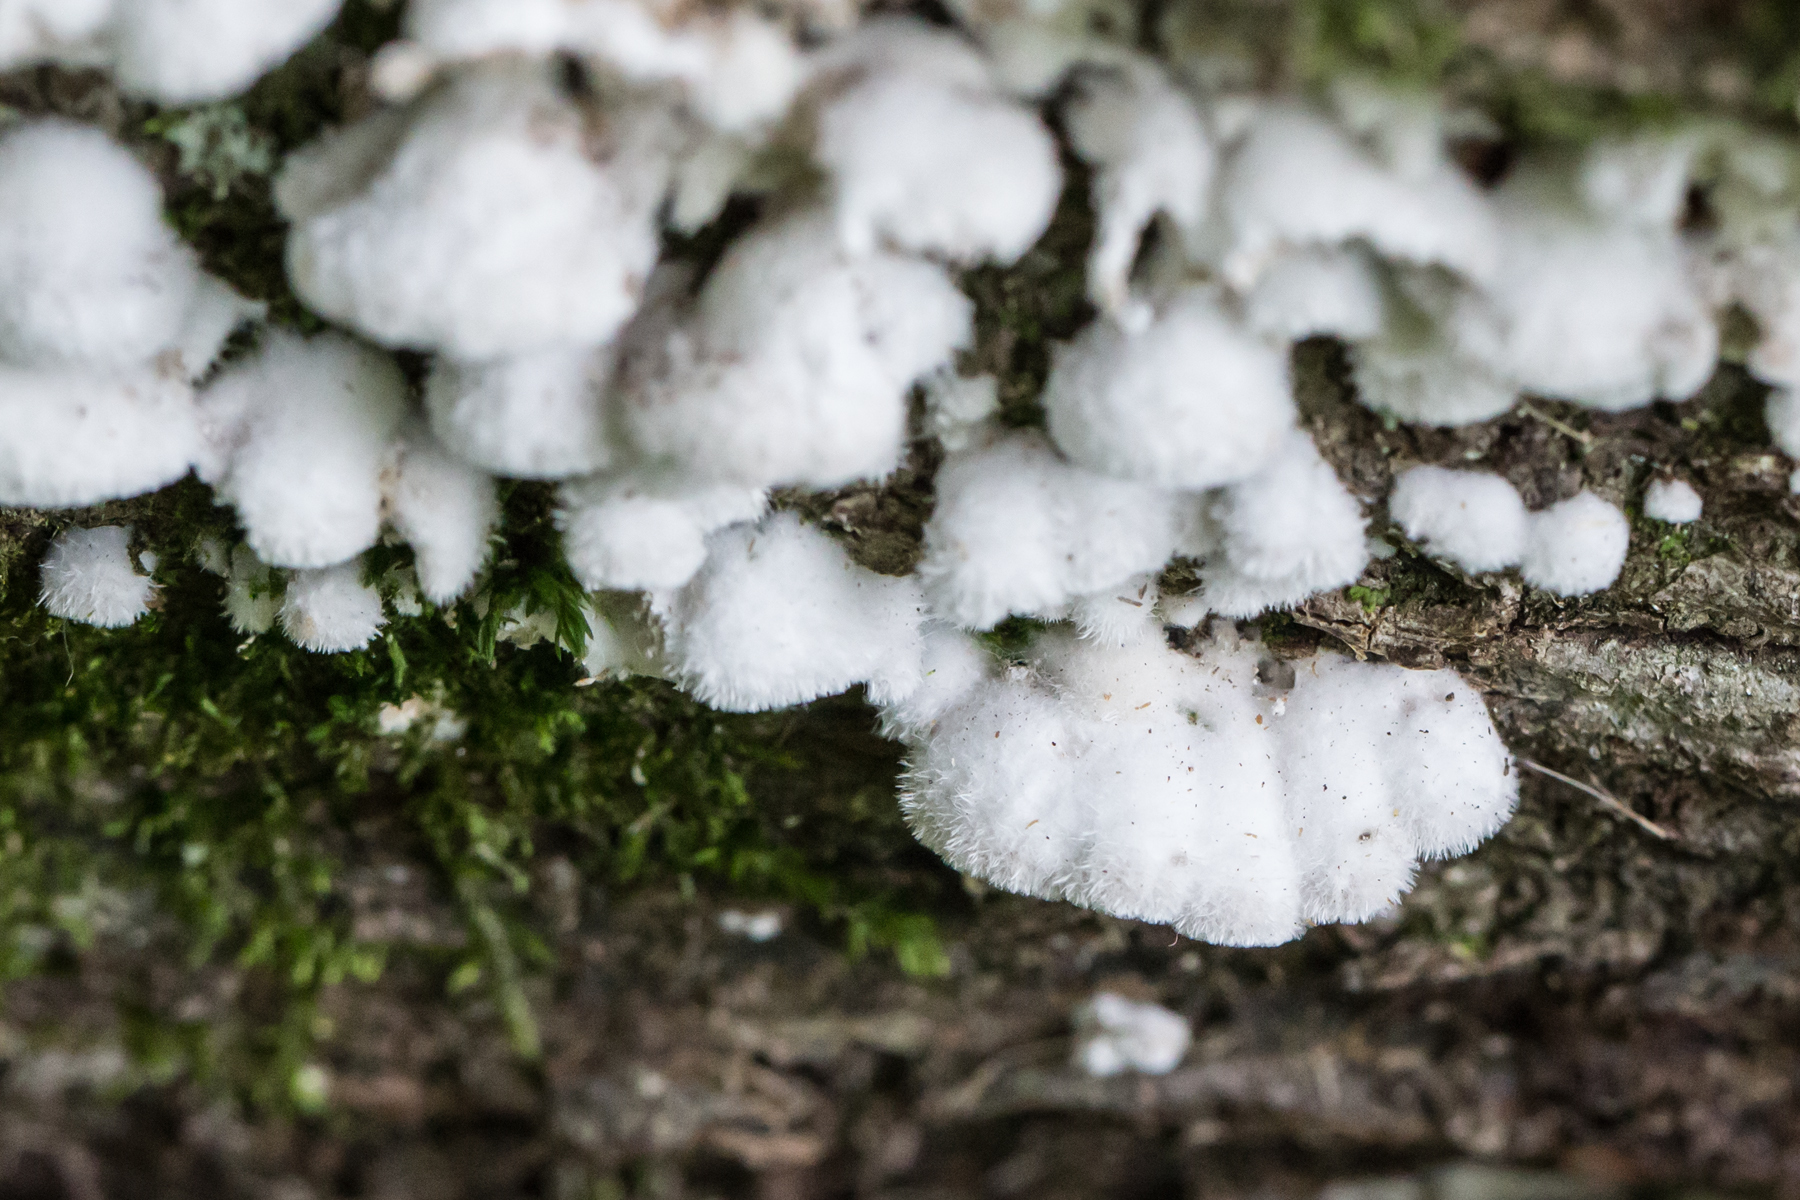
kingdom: Fungi
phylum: Basidiomycota
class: Agaricomycetes
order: Agaricales
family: Schizophyllaceae
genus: Schizophyllum
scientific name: Schizophyllum commune
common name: Common porecrust
